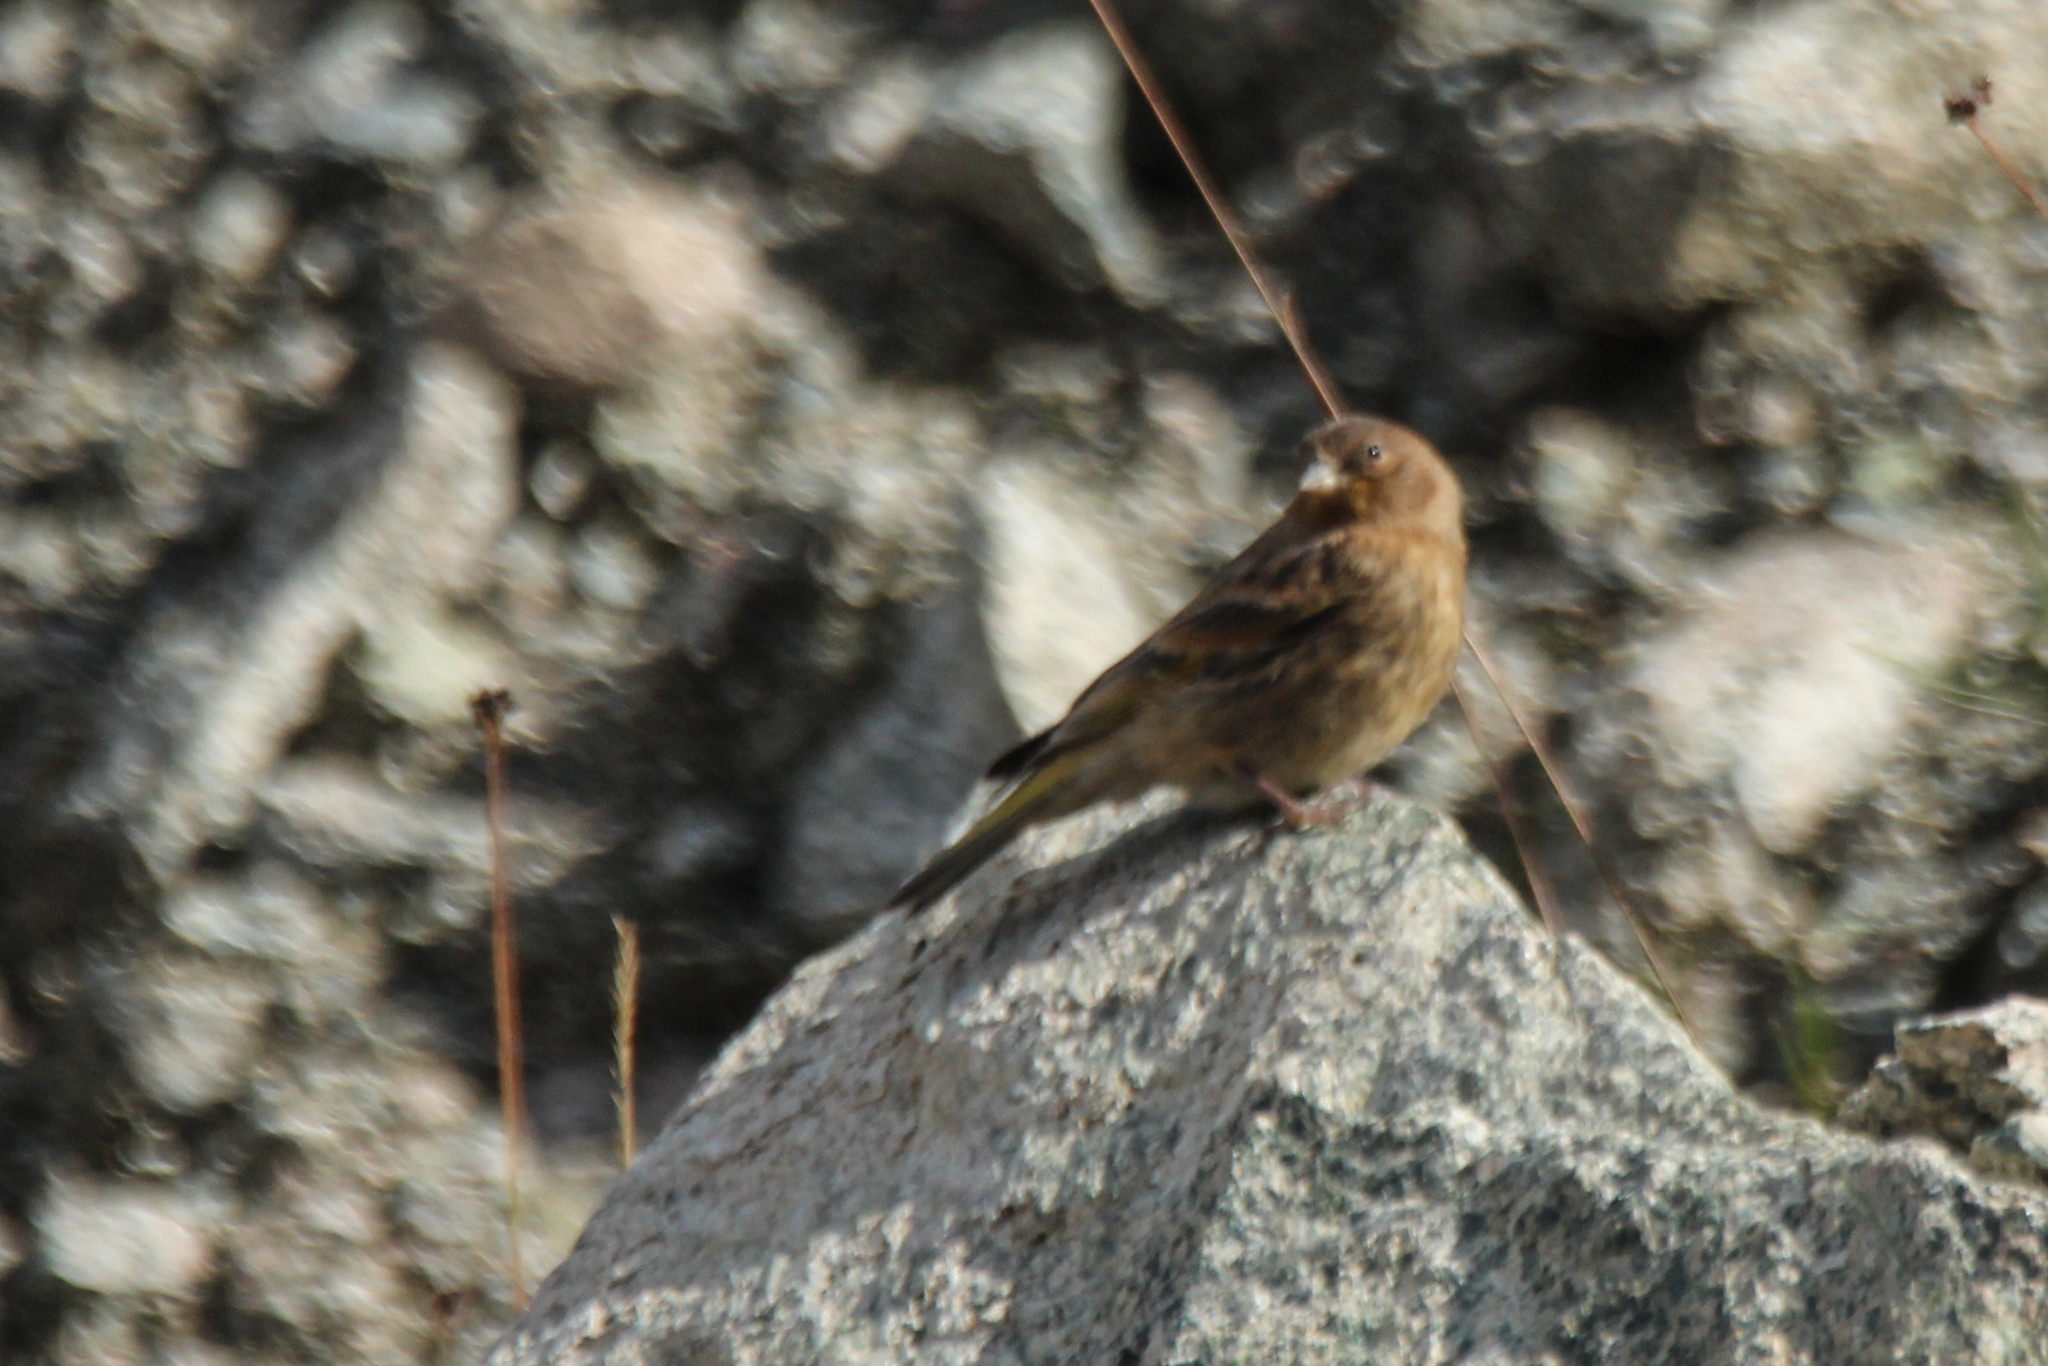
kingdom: Animalia
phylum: Chordata
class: Aves
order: Passeriformes
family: Fringillidae
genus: Serinus
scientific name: Serinus pusillus
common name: Red-fronted serin
